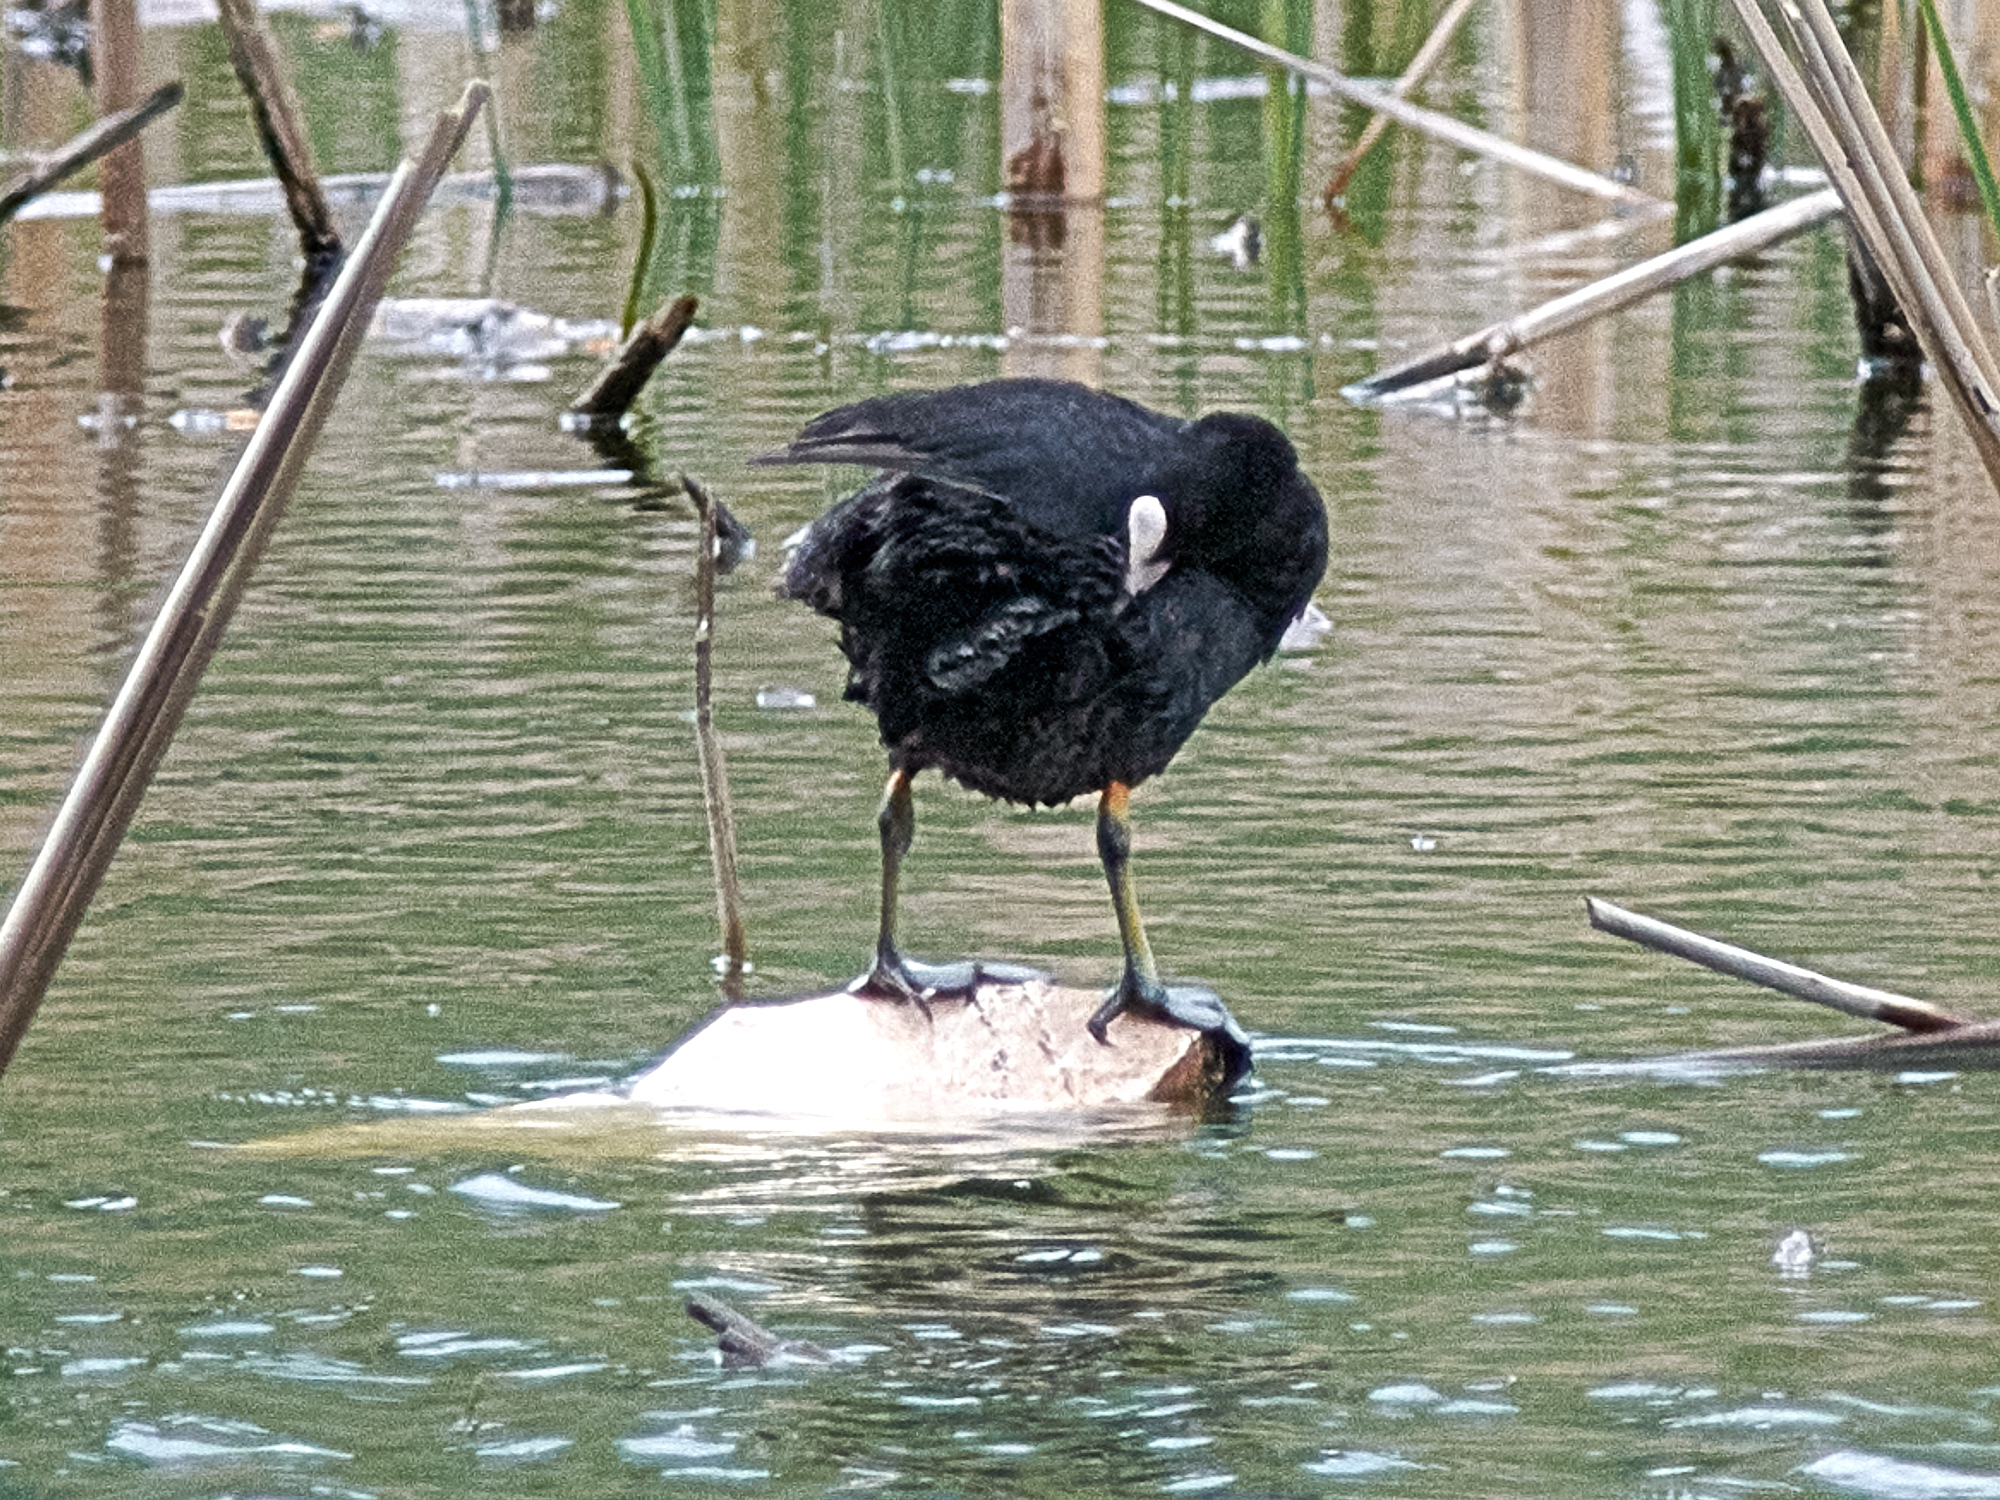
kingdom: Animalia
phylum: Chordata
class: Aves
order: Gruiformes
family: Rallidae
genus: Fulica
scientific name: Fulica atra
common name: Eurasian coot
